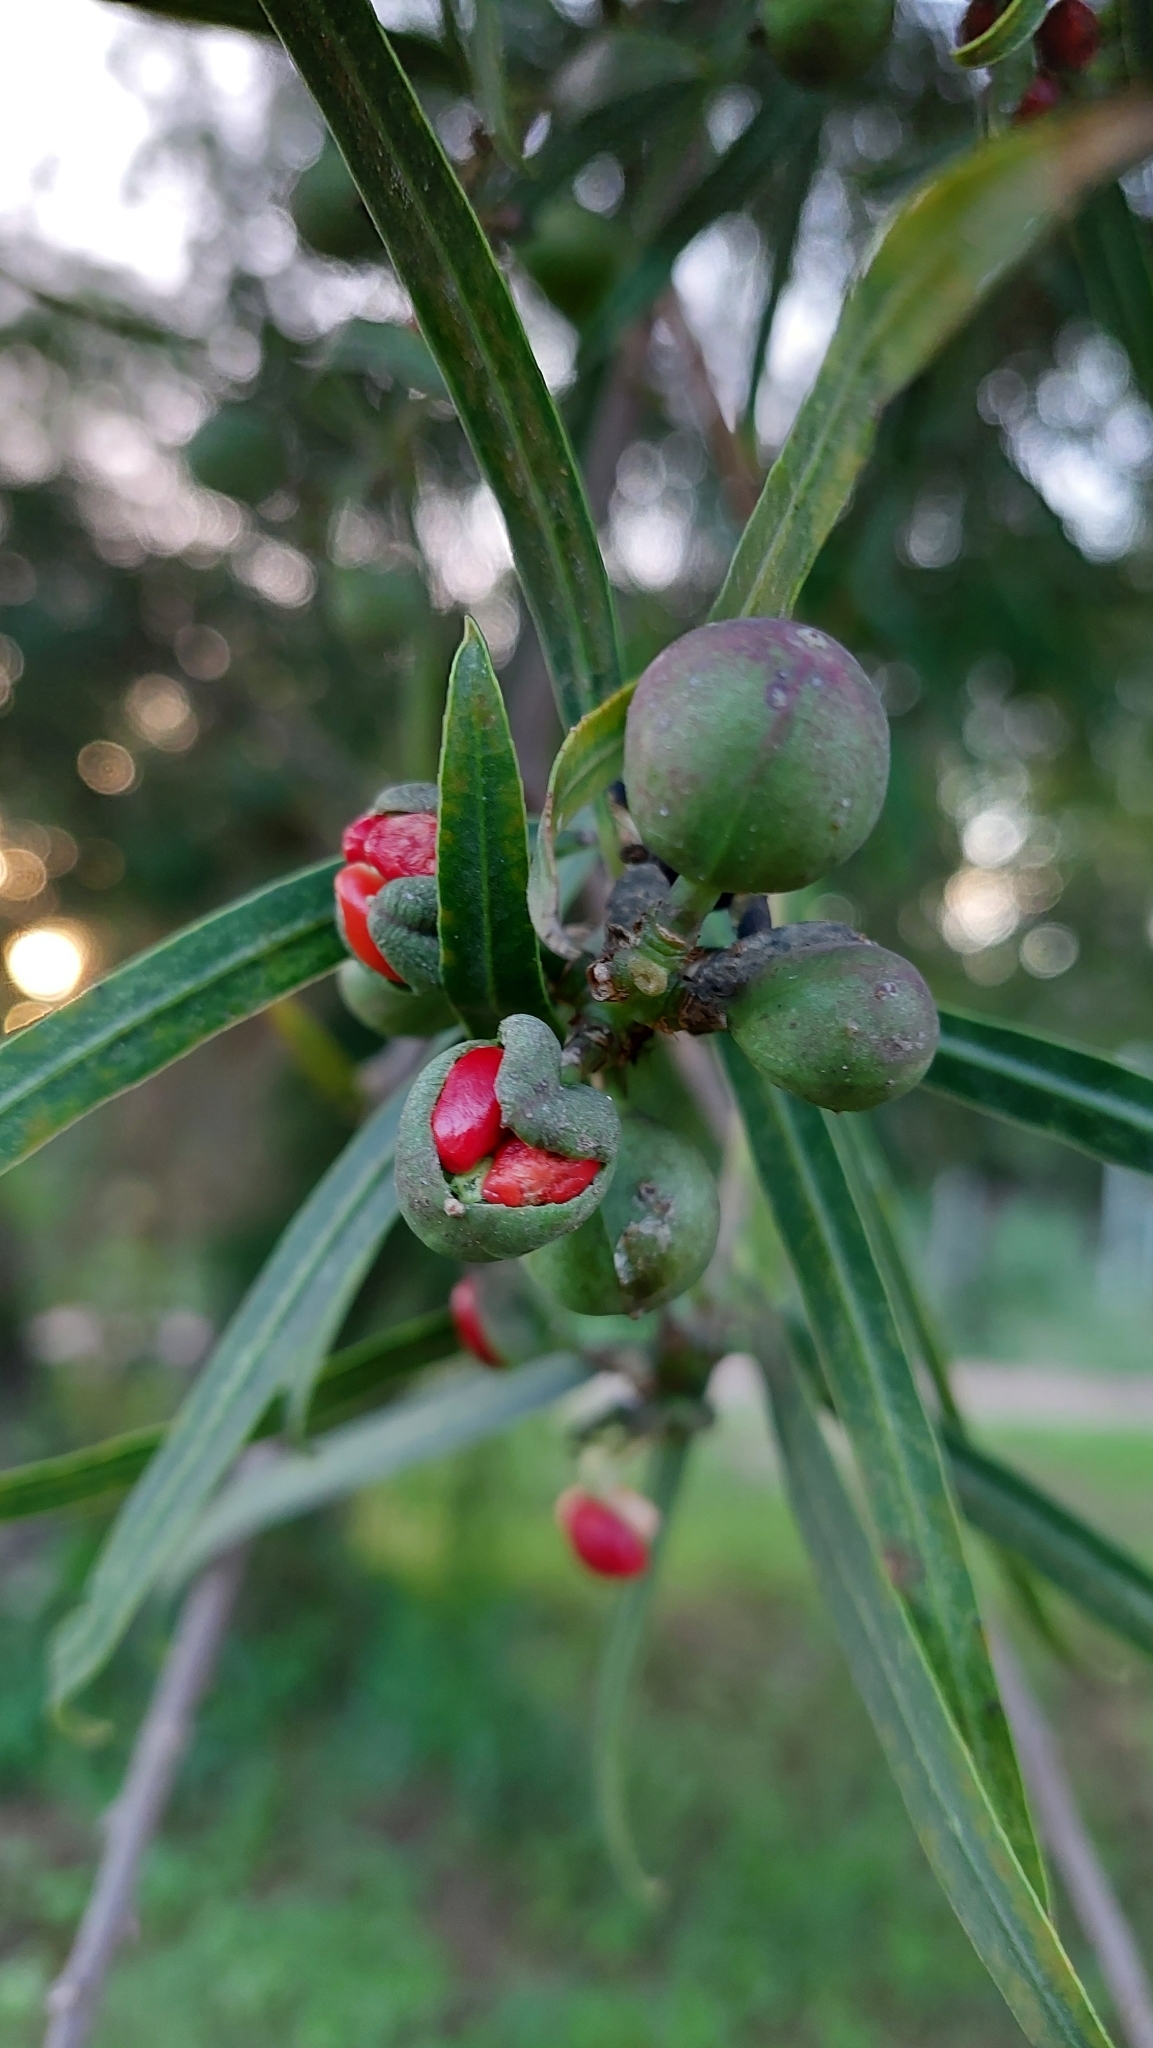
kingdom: Plantae
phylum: Tracheophyta
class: Magnoliopsida
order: Malpighiales
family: Euphorbiaceae
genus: Sapium
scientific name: Sapium haematospermum
